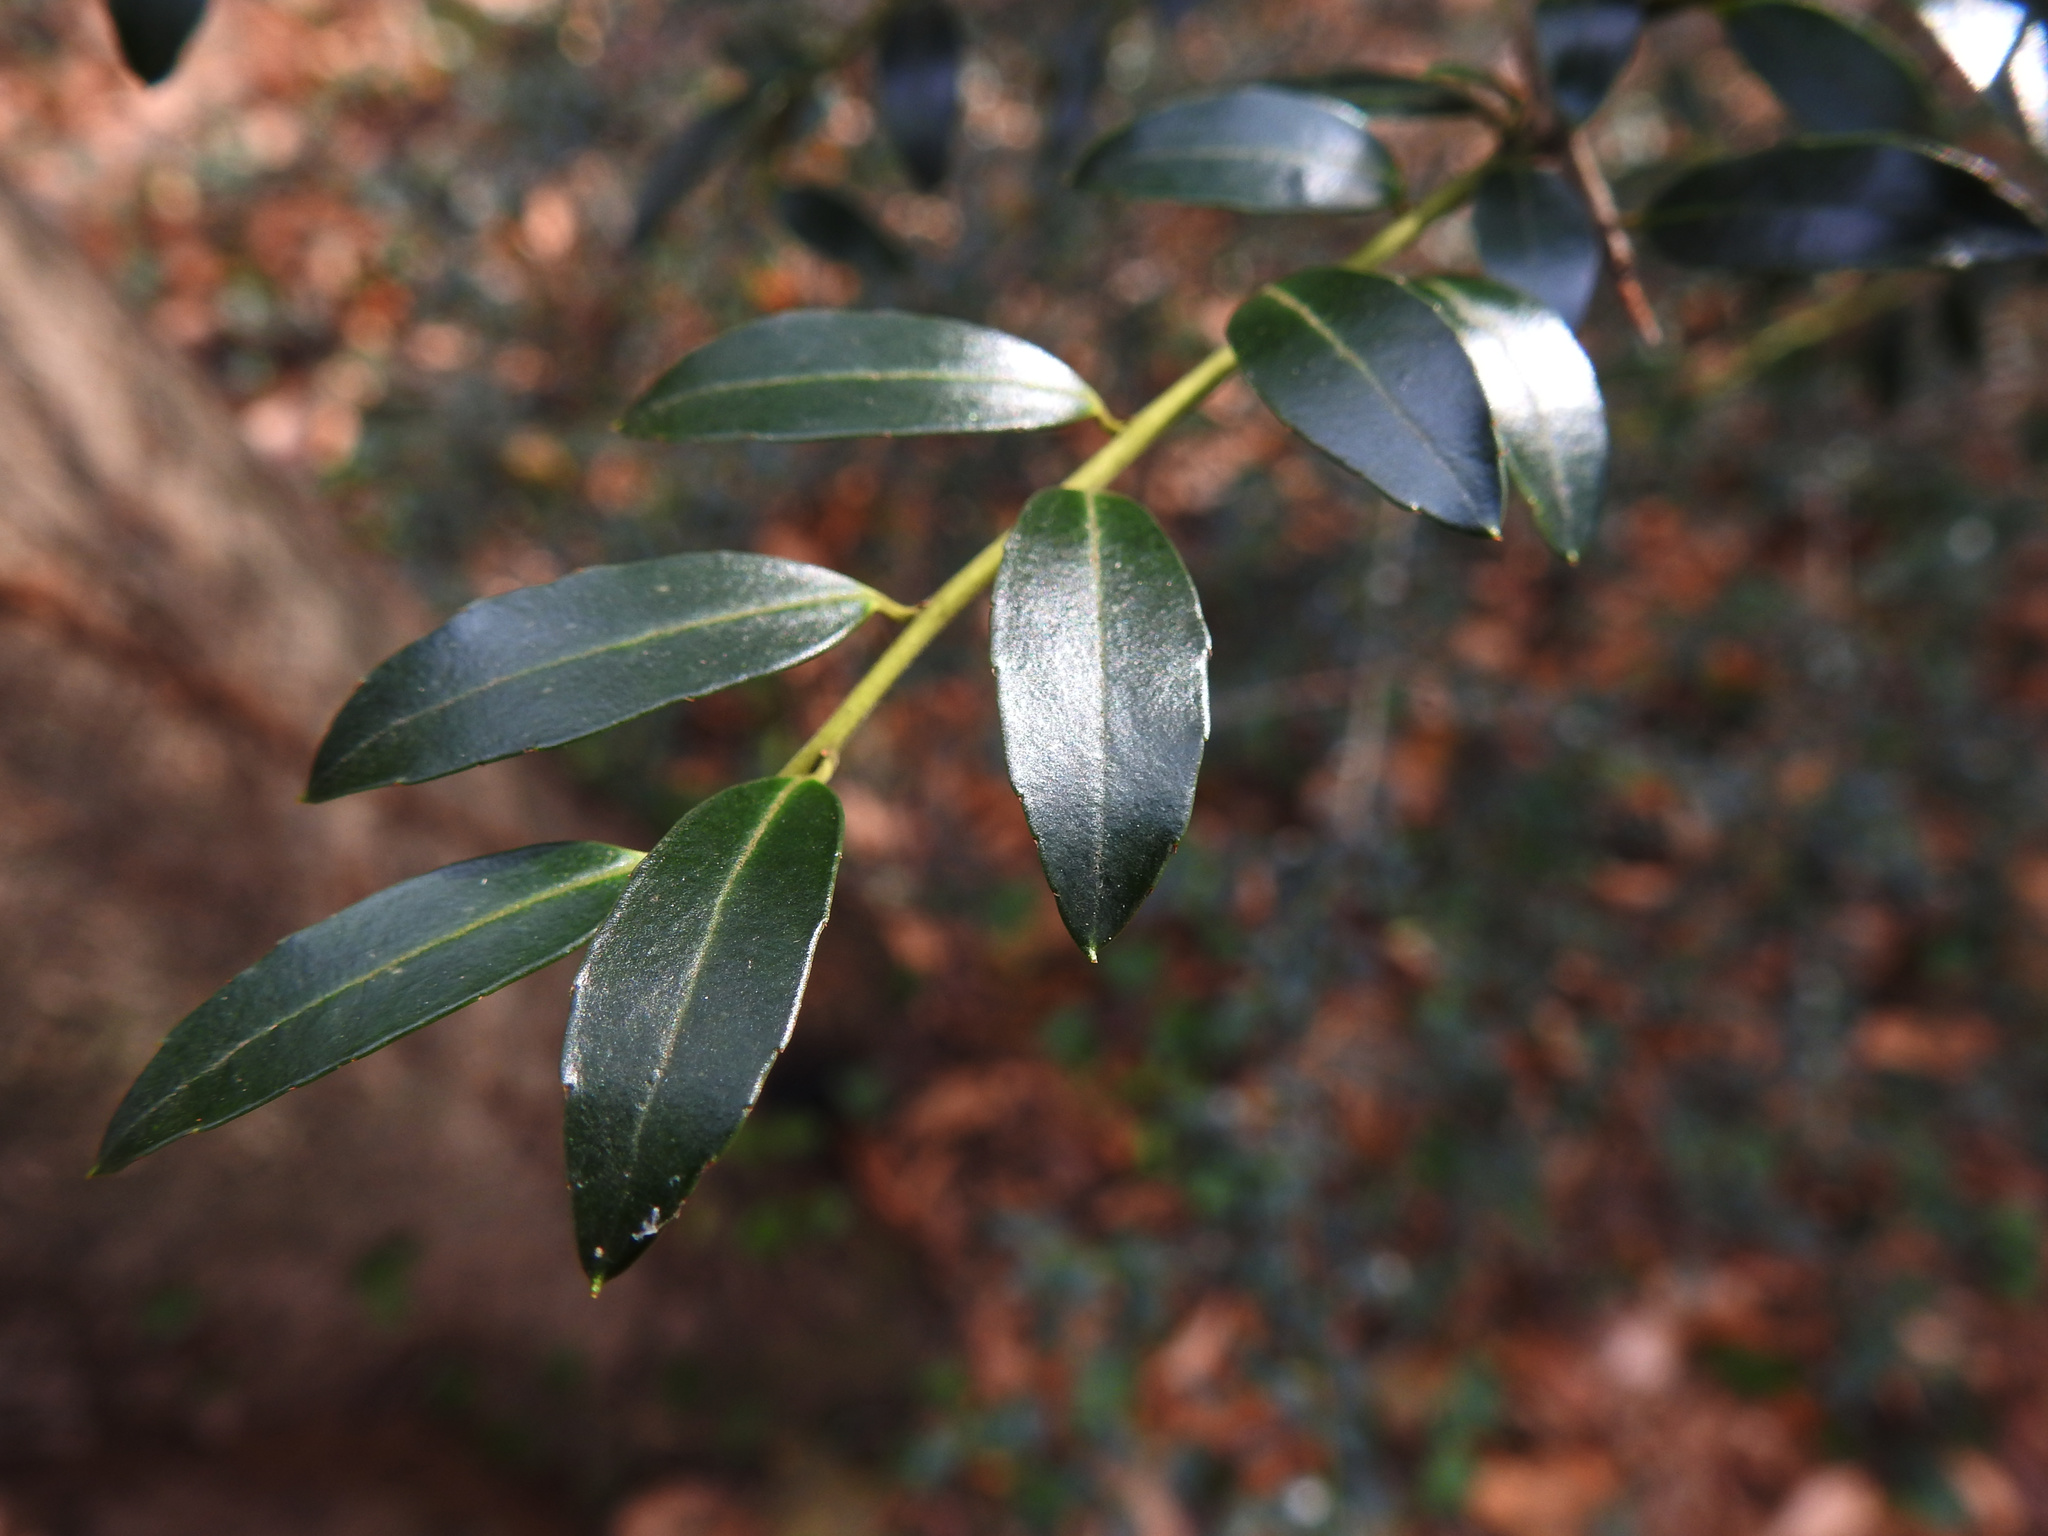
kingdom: Plantae
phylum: Tracheophyta
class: Magnoliopsida
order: Aquifoliales
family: Aquifoliaceae
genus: Ilex
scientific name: Ilex crenata
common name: Japanese holly
